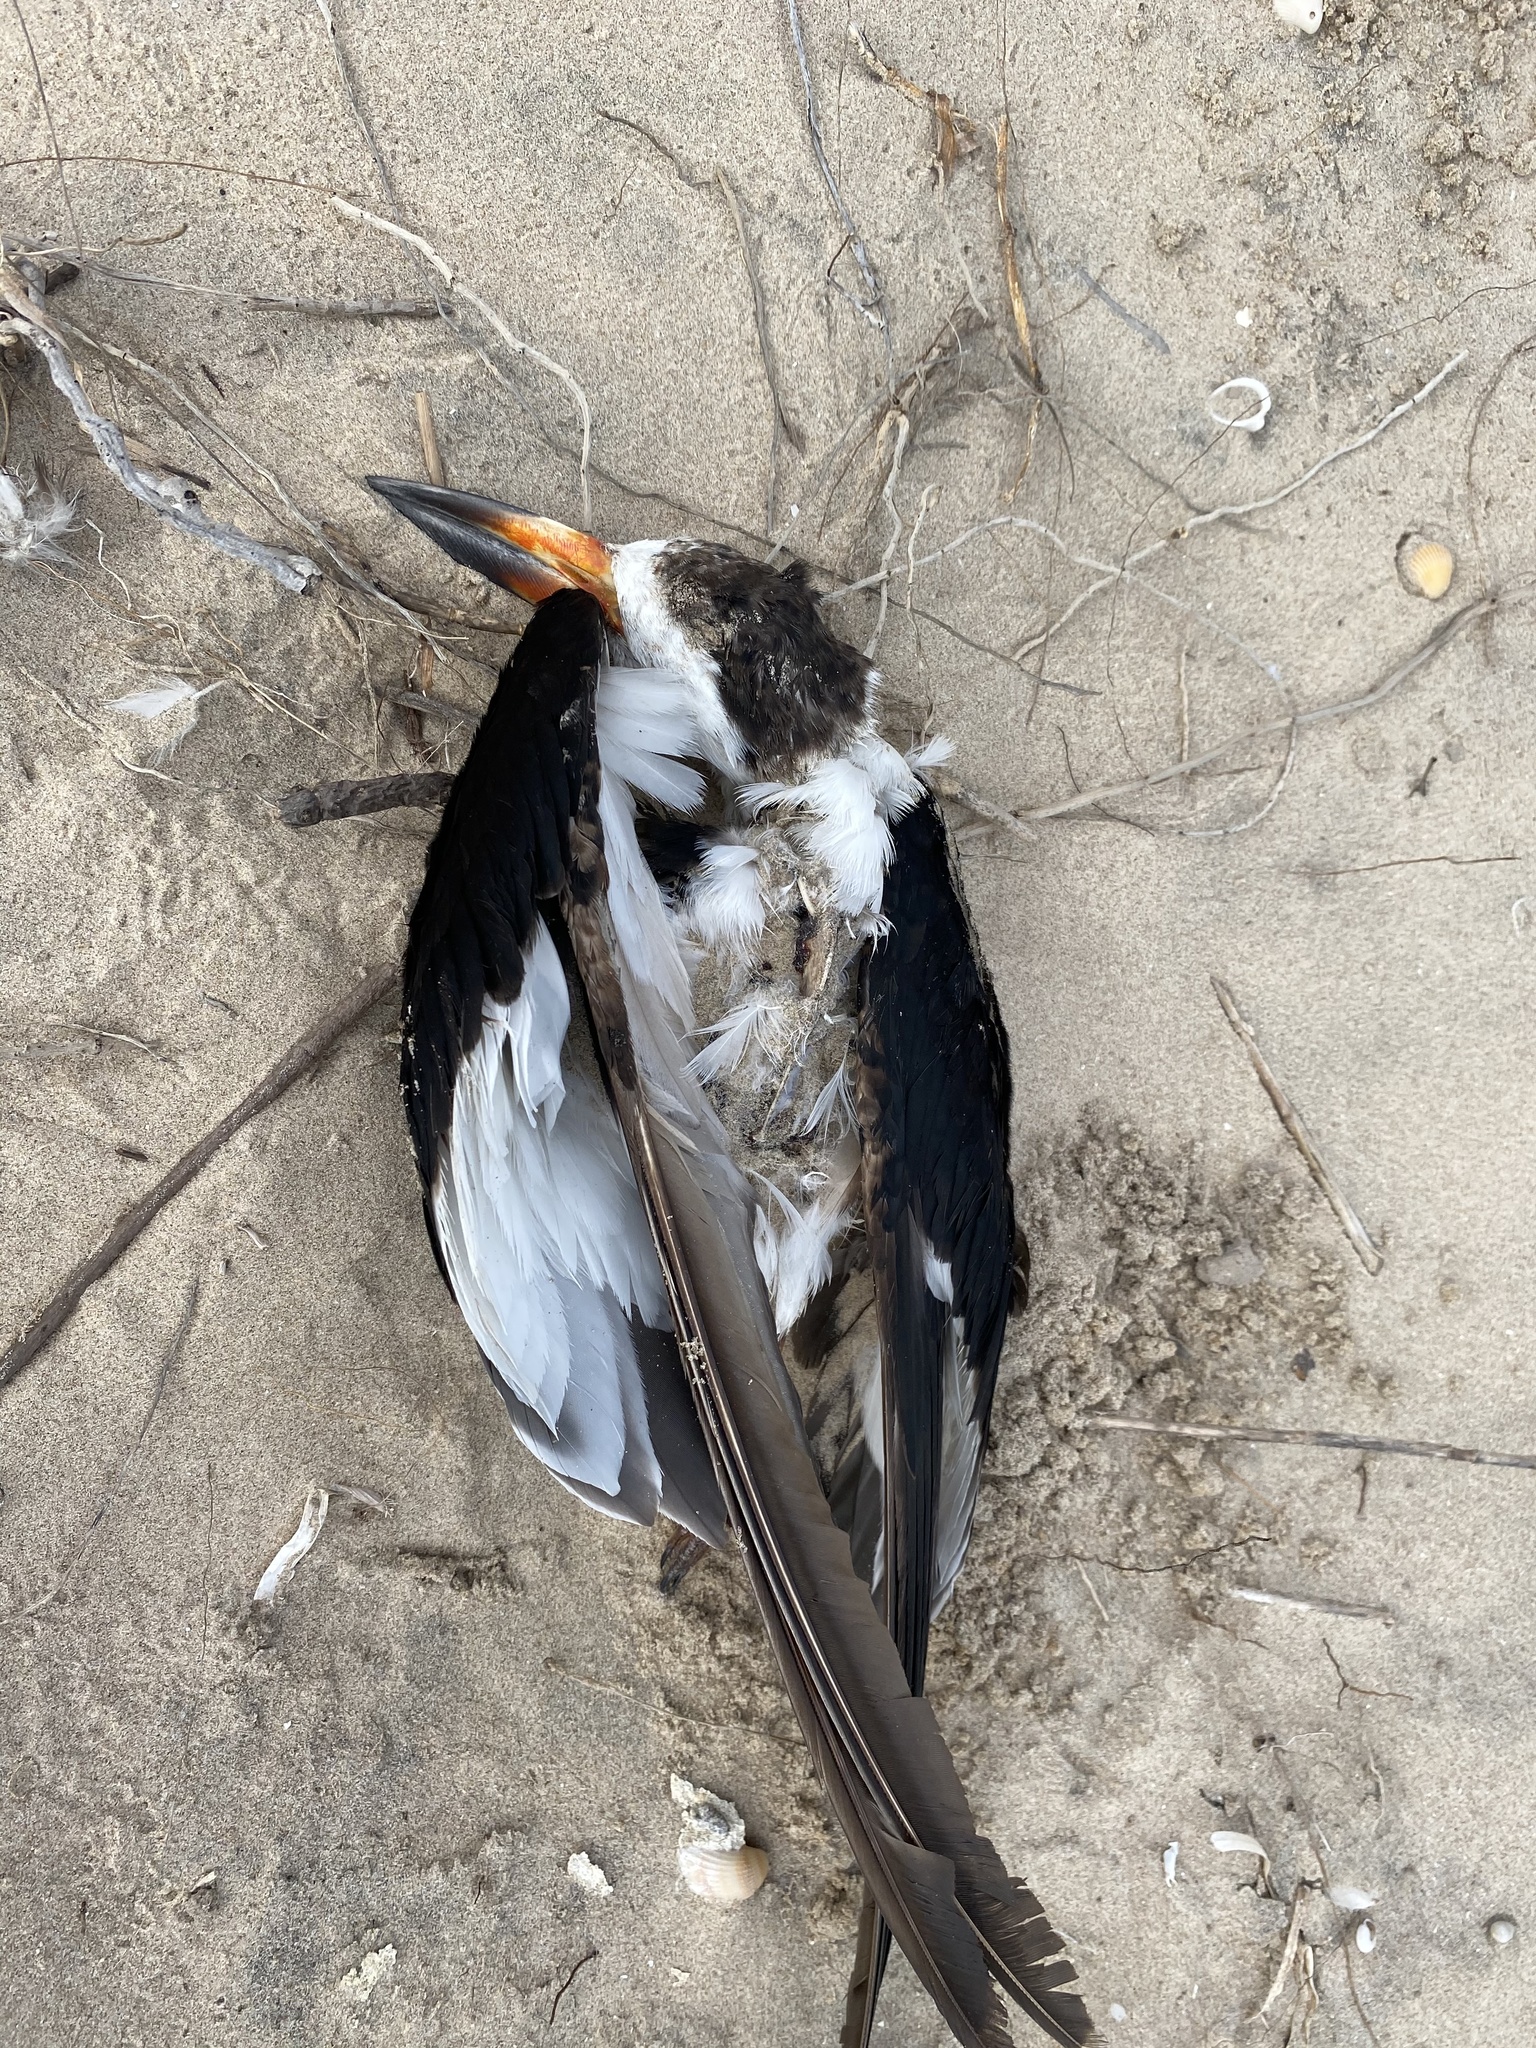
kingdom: Animalia
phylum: Chordata
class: Aves
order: Charadriiformes
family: Laridae
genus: Rynchops
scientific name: Rynchops niger
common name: Black skimmer
